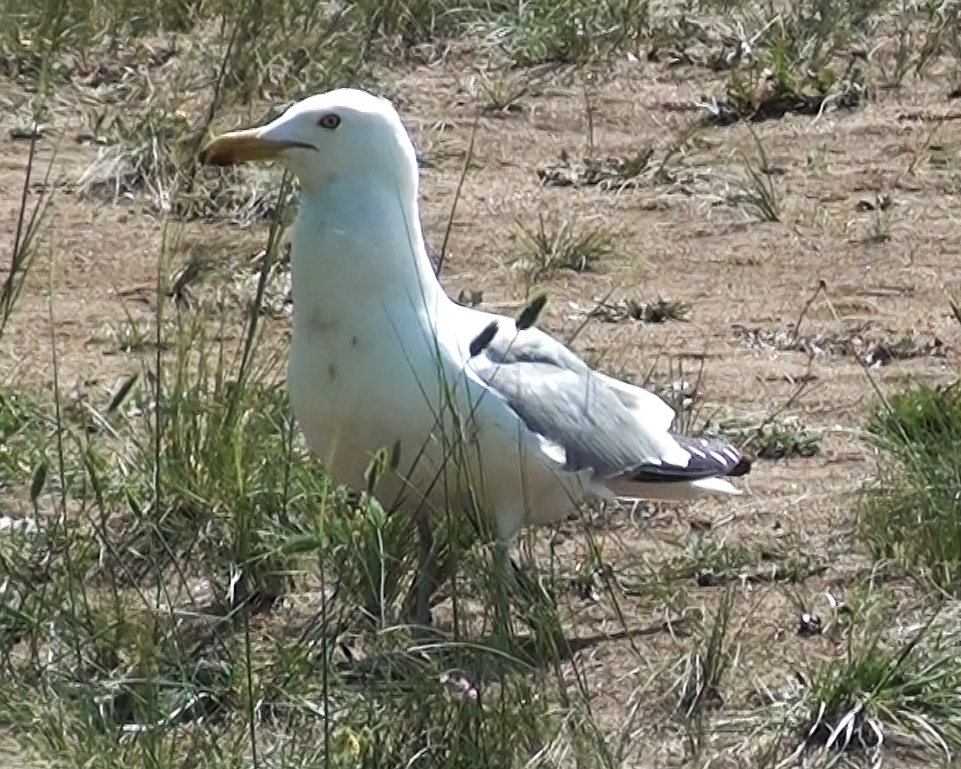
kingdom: Animalia
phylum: Chordata
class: Aves
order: Charadriiformes
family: Laridae
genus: Larus
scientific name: Larus vegae
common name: Vega gull
